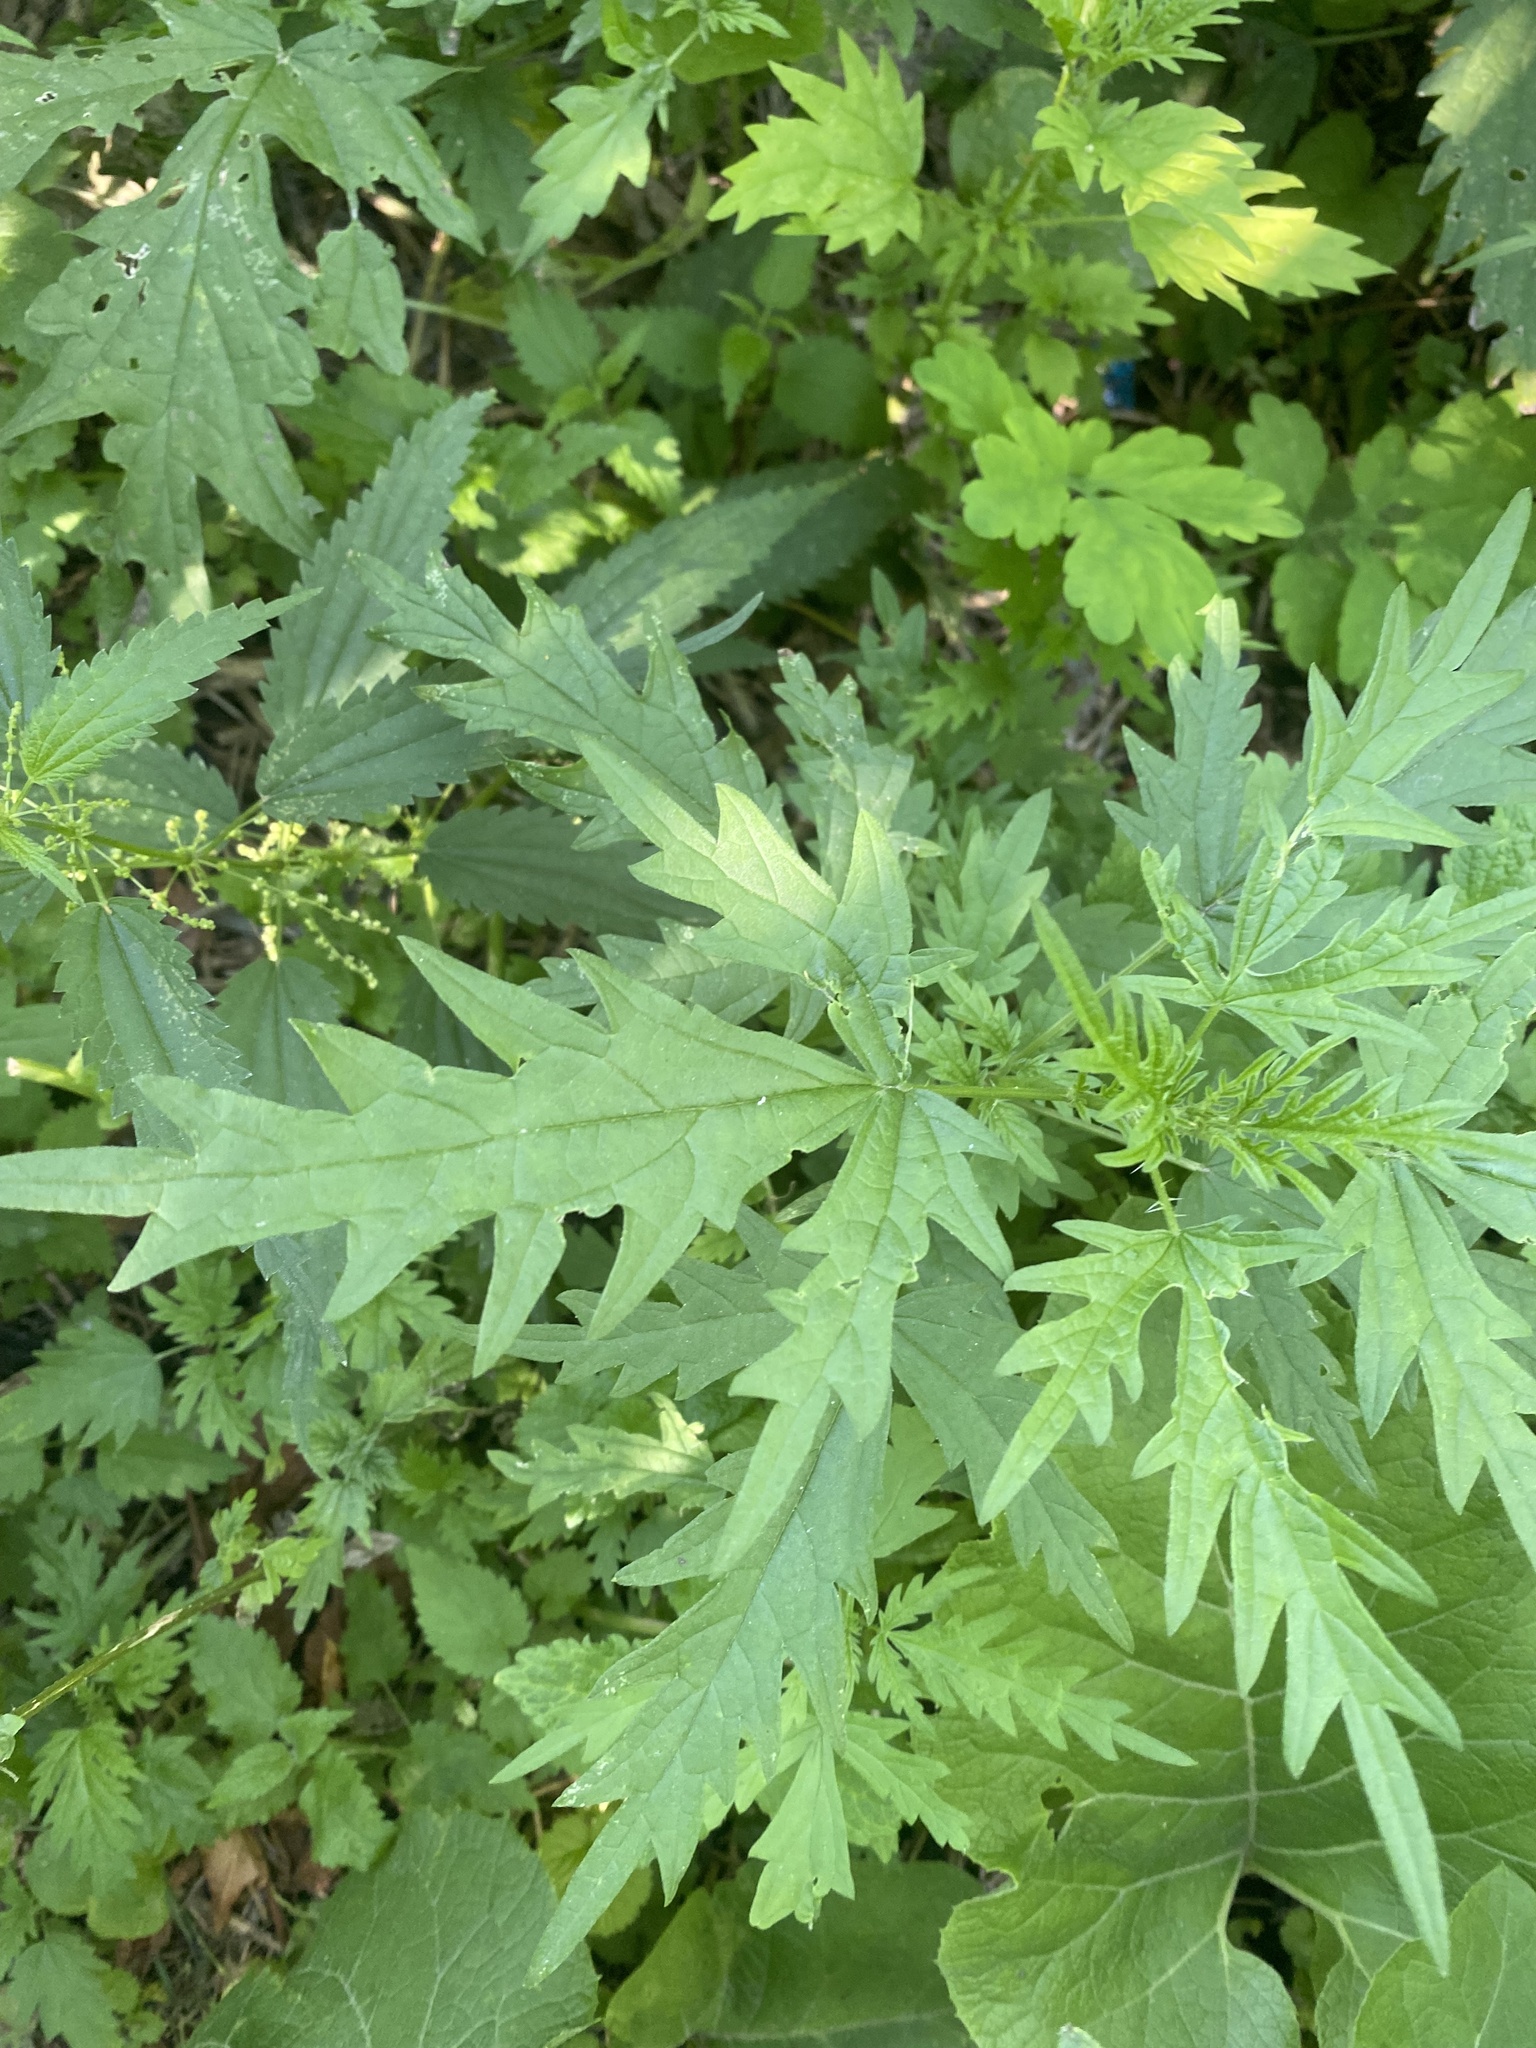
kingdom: Plantae
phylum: Tracheophyta
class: Magnoliopsida
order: Rosales
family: Urticaceae
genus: Urtica
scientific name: Urtica cannabina
